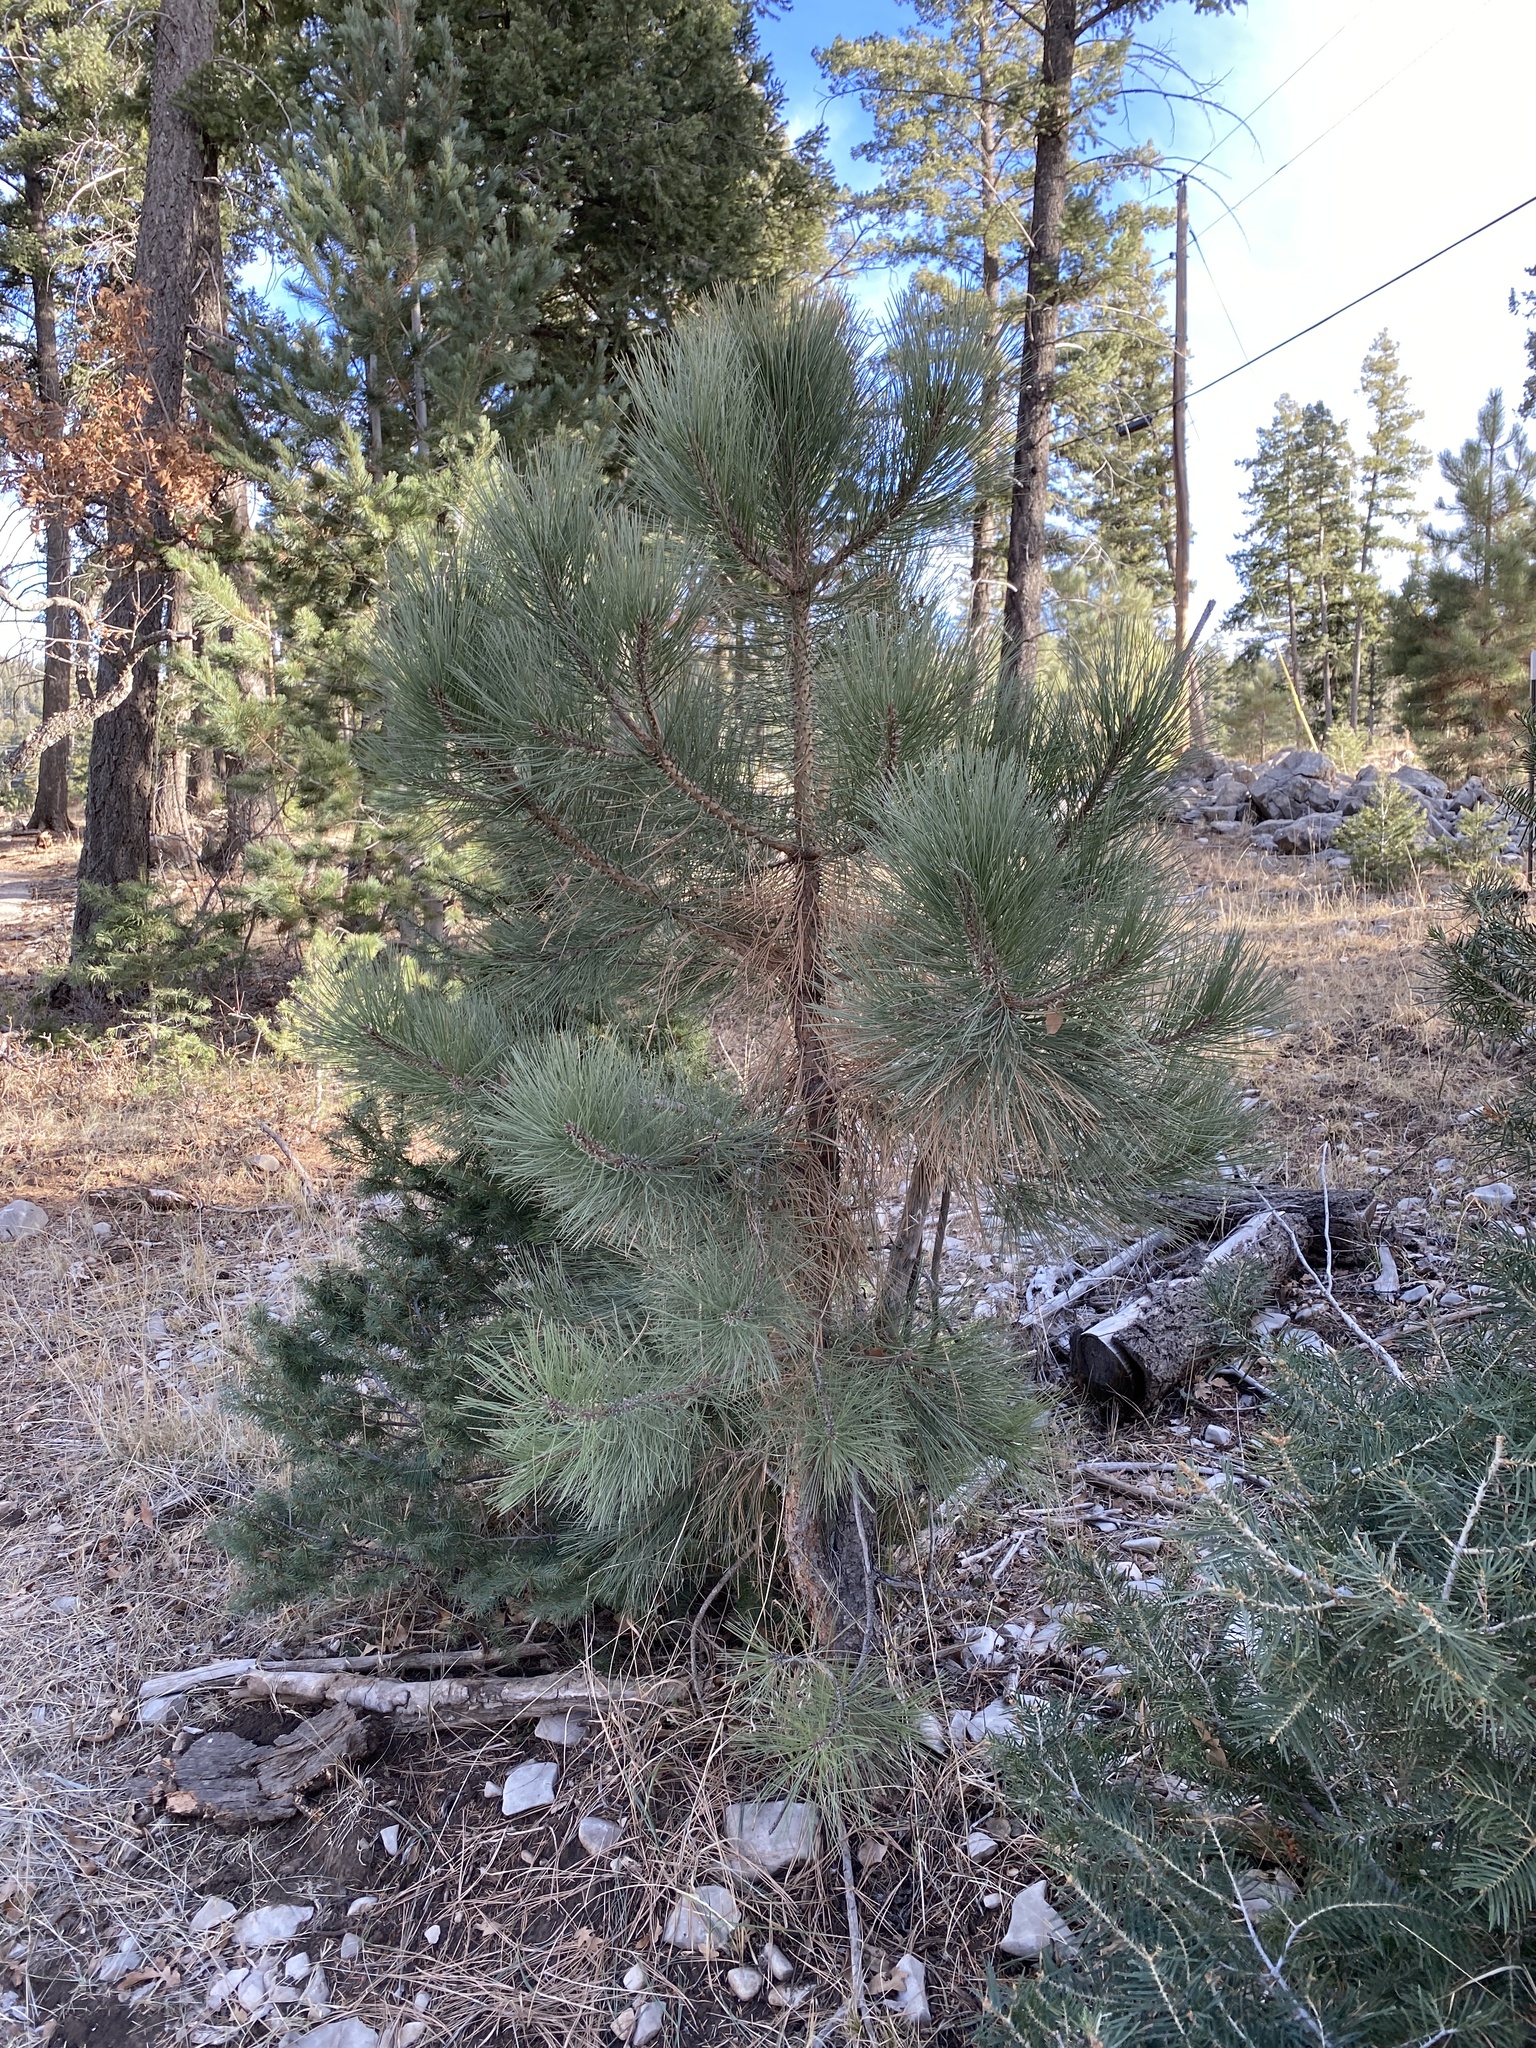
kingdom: Plantae
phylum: Tracheophyta
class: Pinopsida
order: Pinales
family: Pinaceae
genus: Pinus
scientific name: Pinus ponderosa
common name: Western yellow-pine
